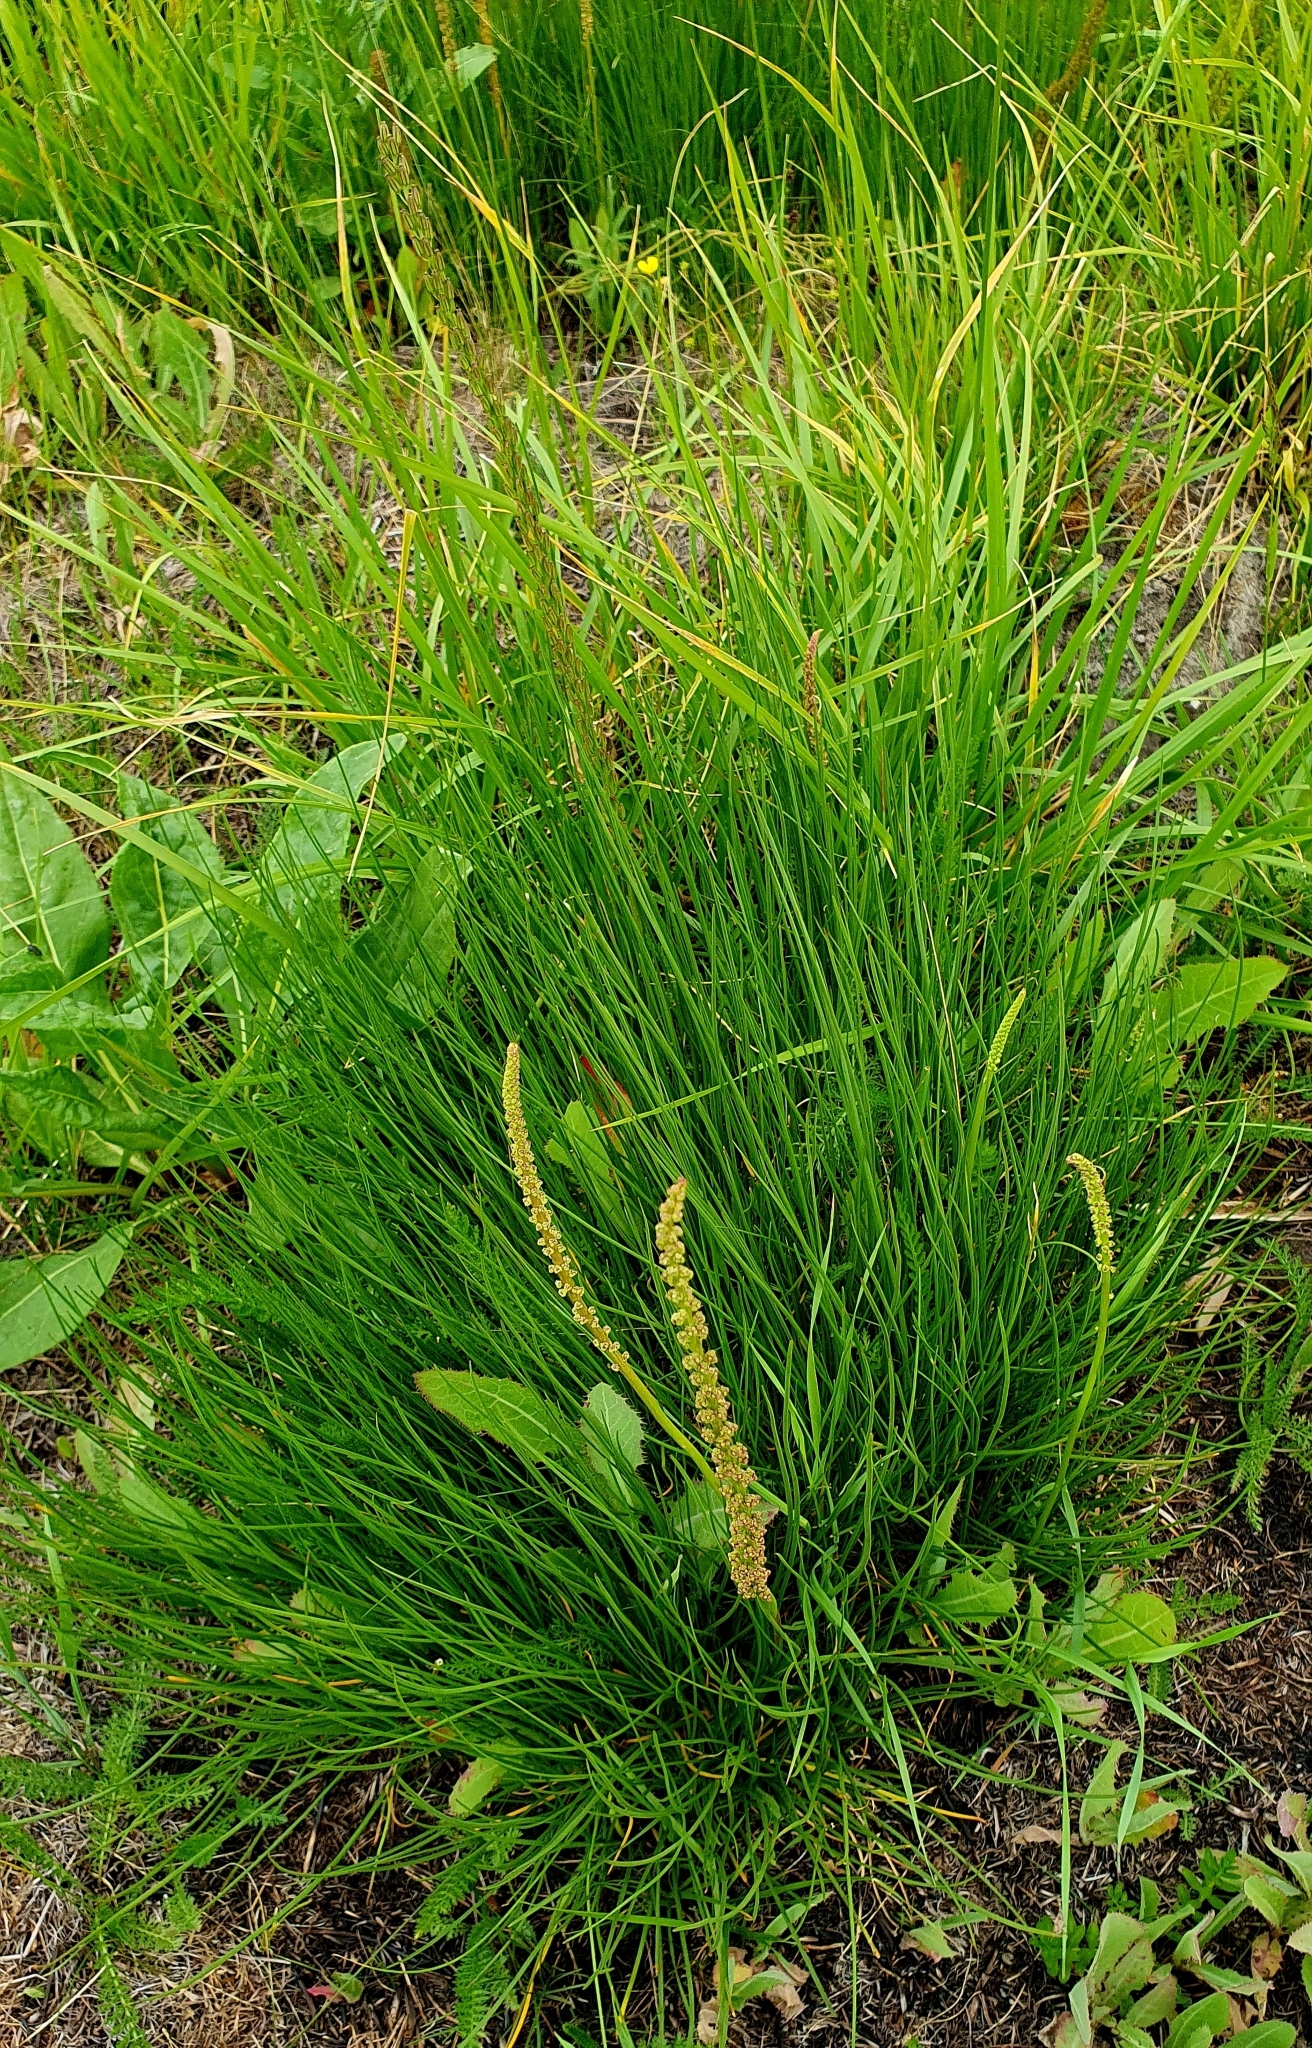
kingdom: Plantae
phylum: Tracheophyta
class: Liliopsida
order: Alismatales
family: Juncaginaceae
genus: Triglochin
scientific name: Triglochin maritima
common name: Sea arrowgrass
